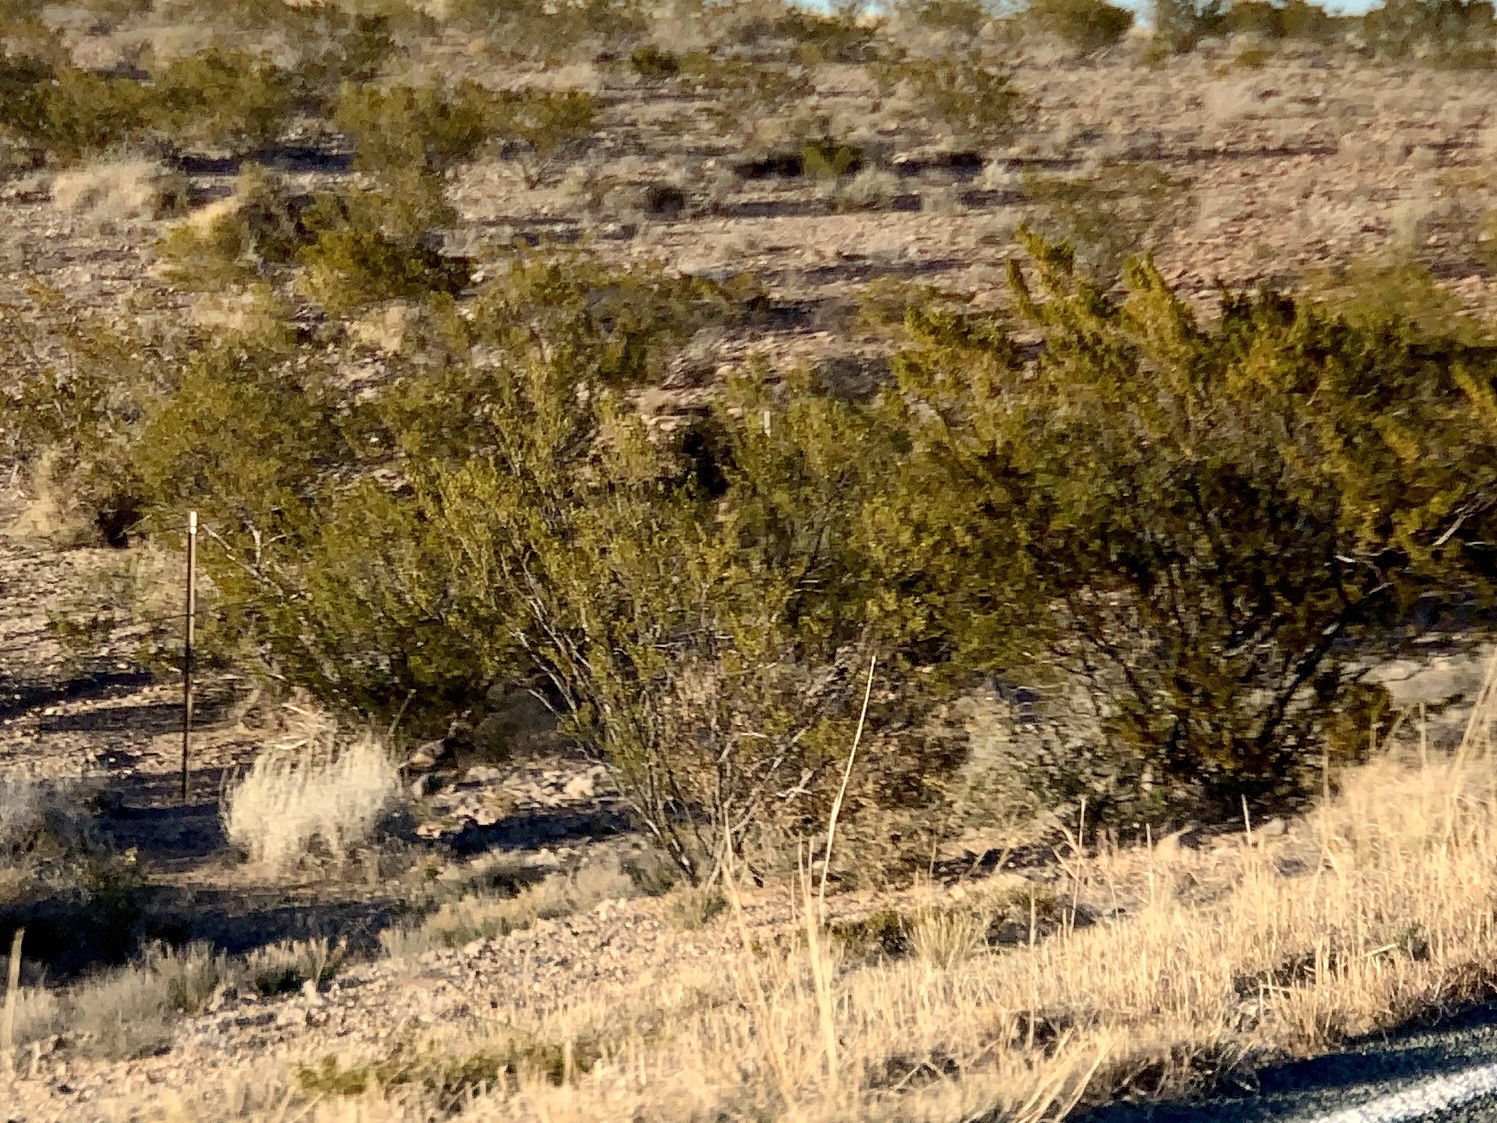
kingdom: Plantae
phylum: Tracheophyta
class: Magnoliopsida
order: Zygophyllales
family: Zygophyllaceae
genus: Larrea
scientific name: Larrea tridentata
